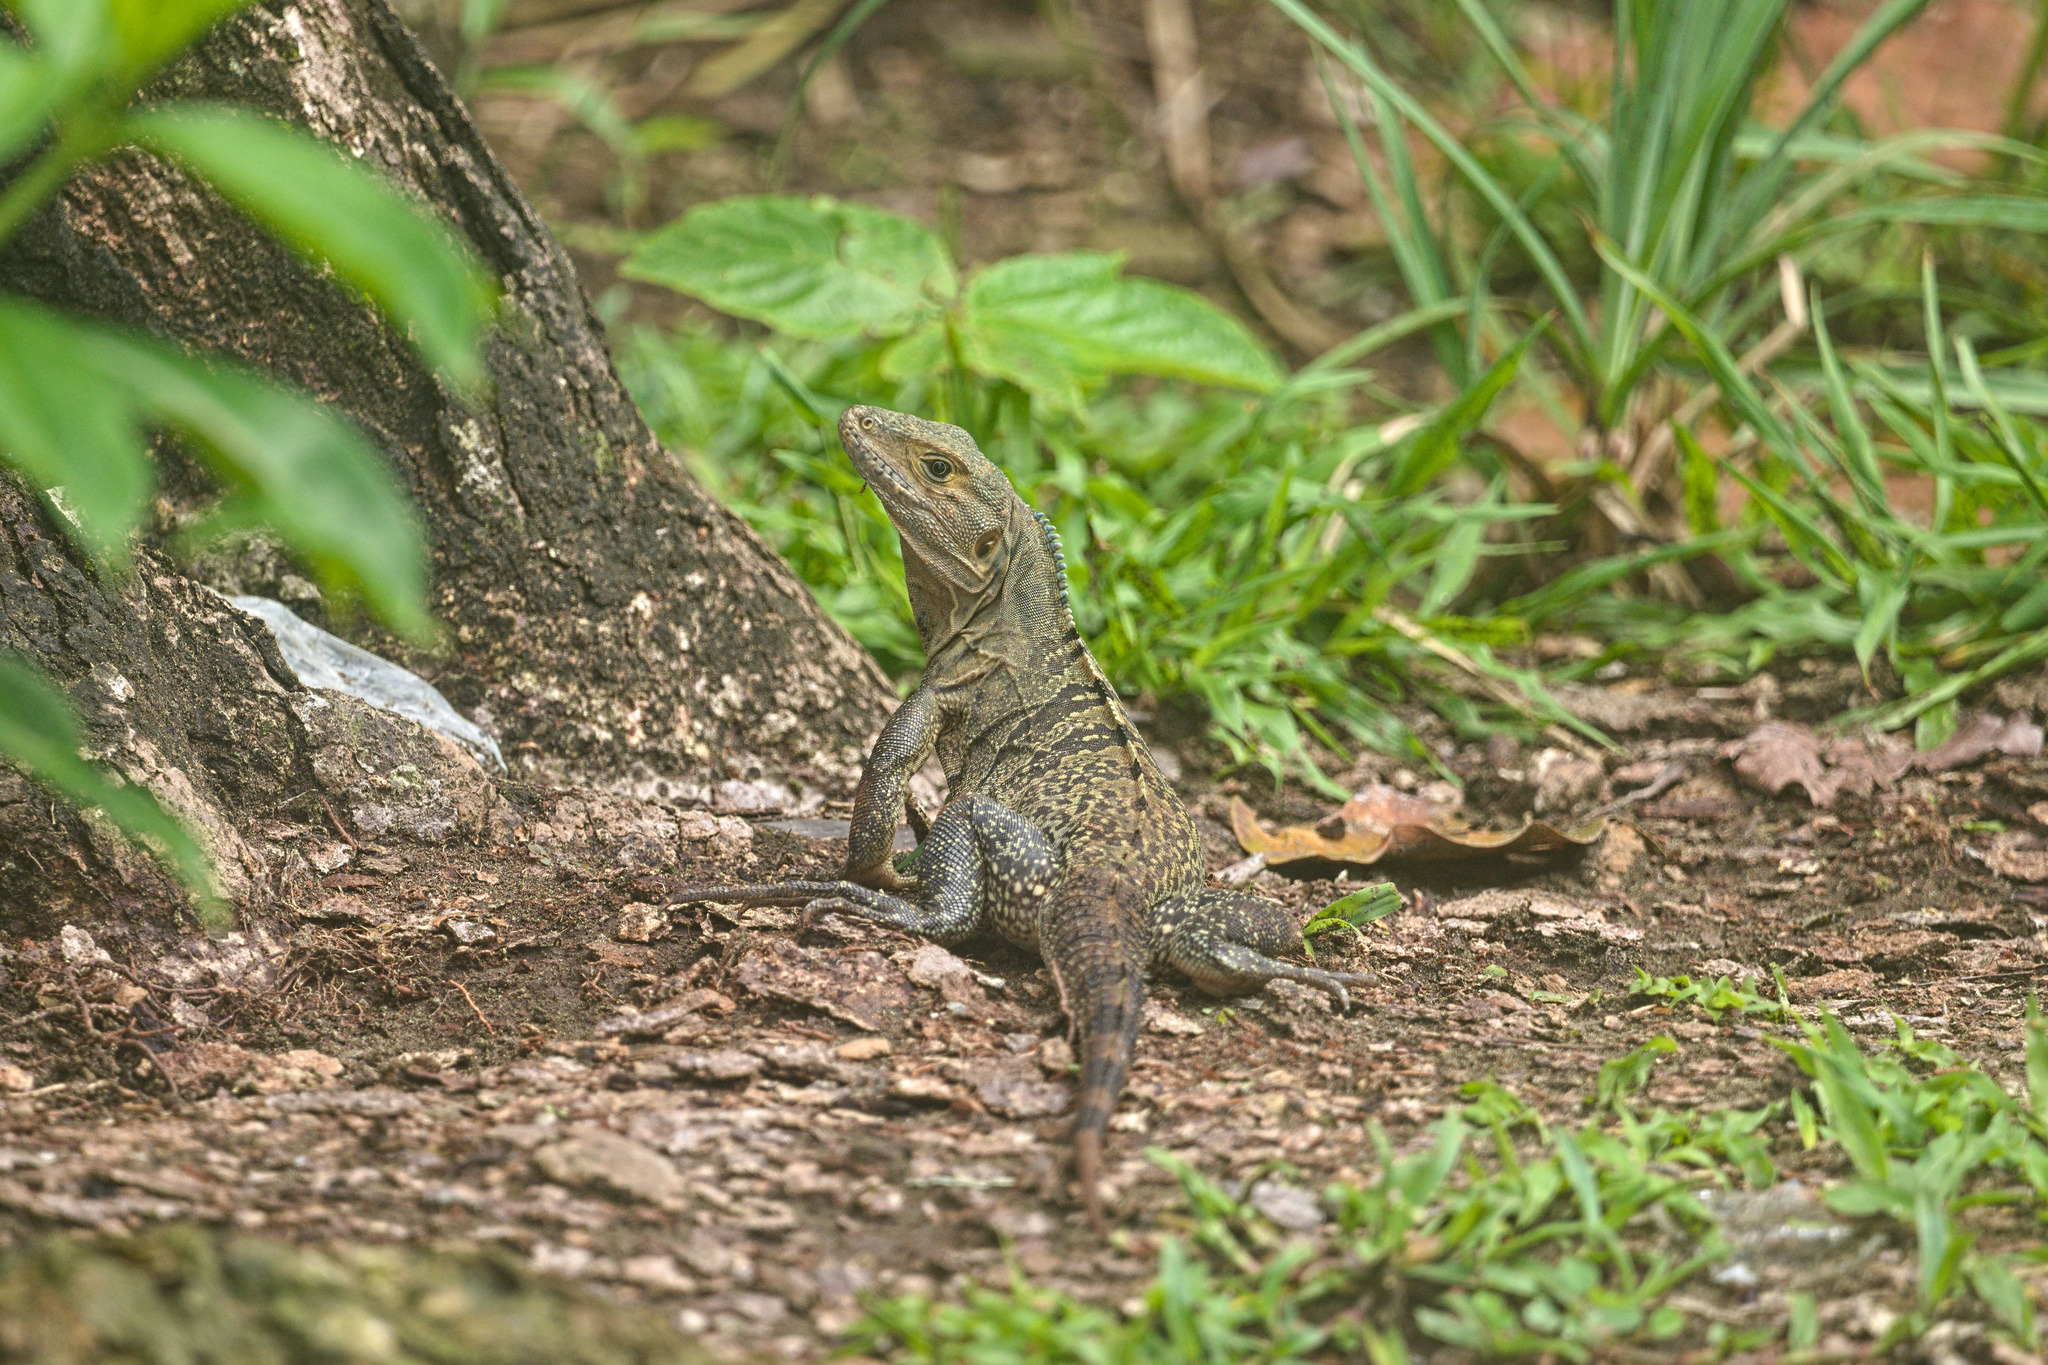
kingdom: Animalia
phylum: Chordata
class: Squamata
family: Iguanidae
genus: Ctenosaura
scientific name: Ctenosaura similis
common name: Black spiny-tailed iguana
